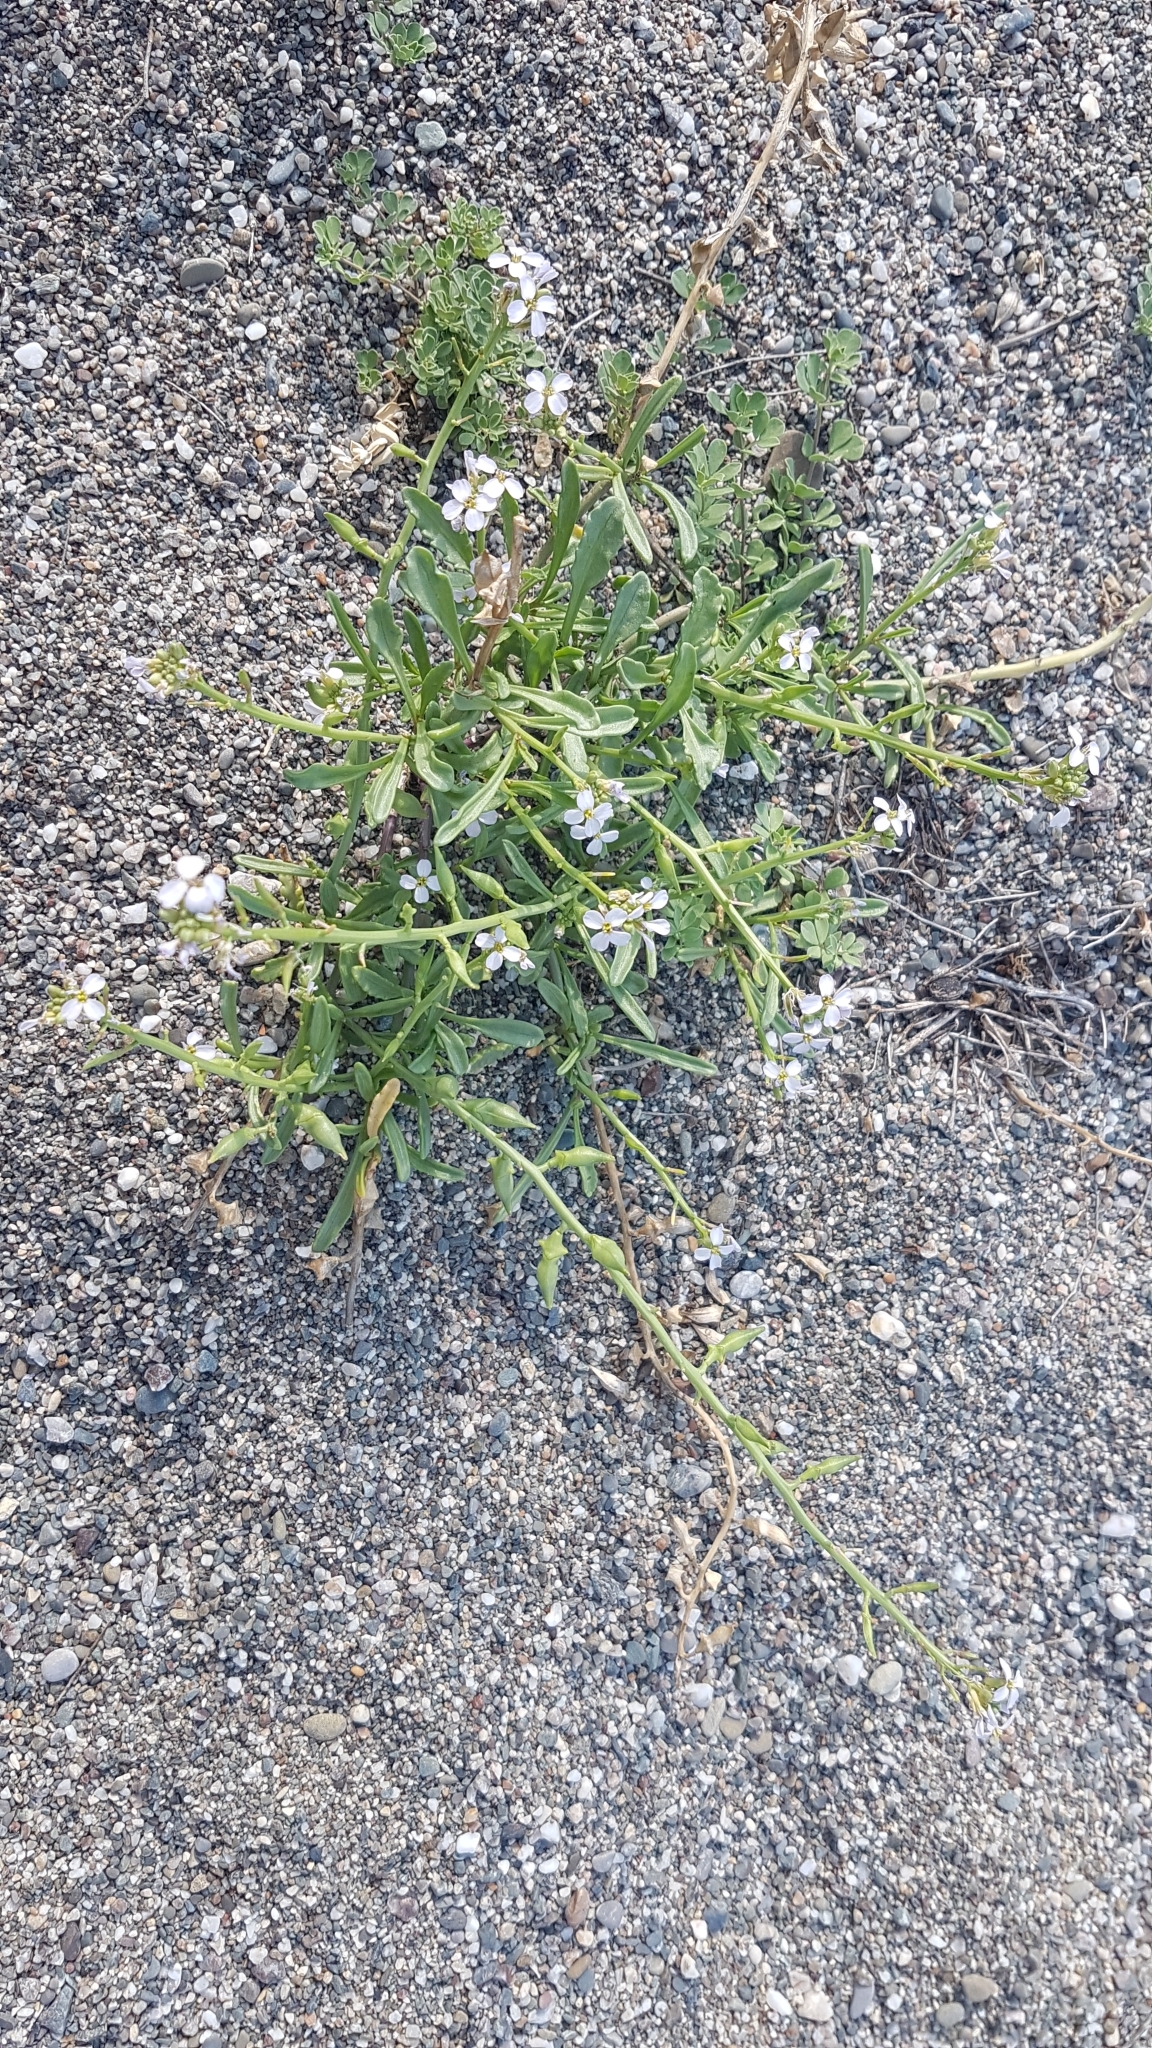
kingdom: Plantae
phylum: Tracheophyta
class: Magnoliopsida
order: Brassicales
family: Brassicaceae
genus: Cakile
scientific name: Cakile maritima
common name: Sea rocket
